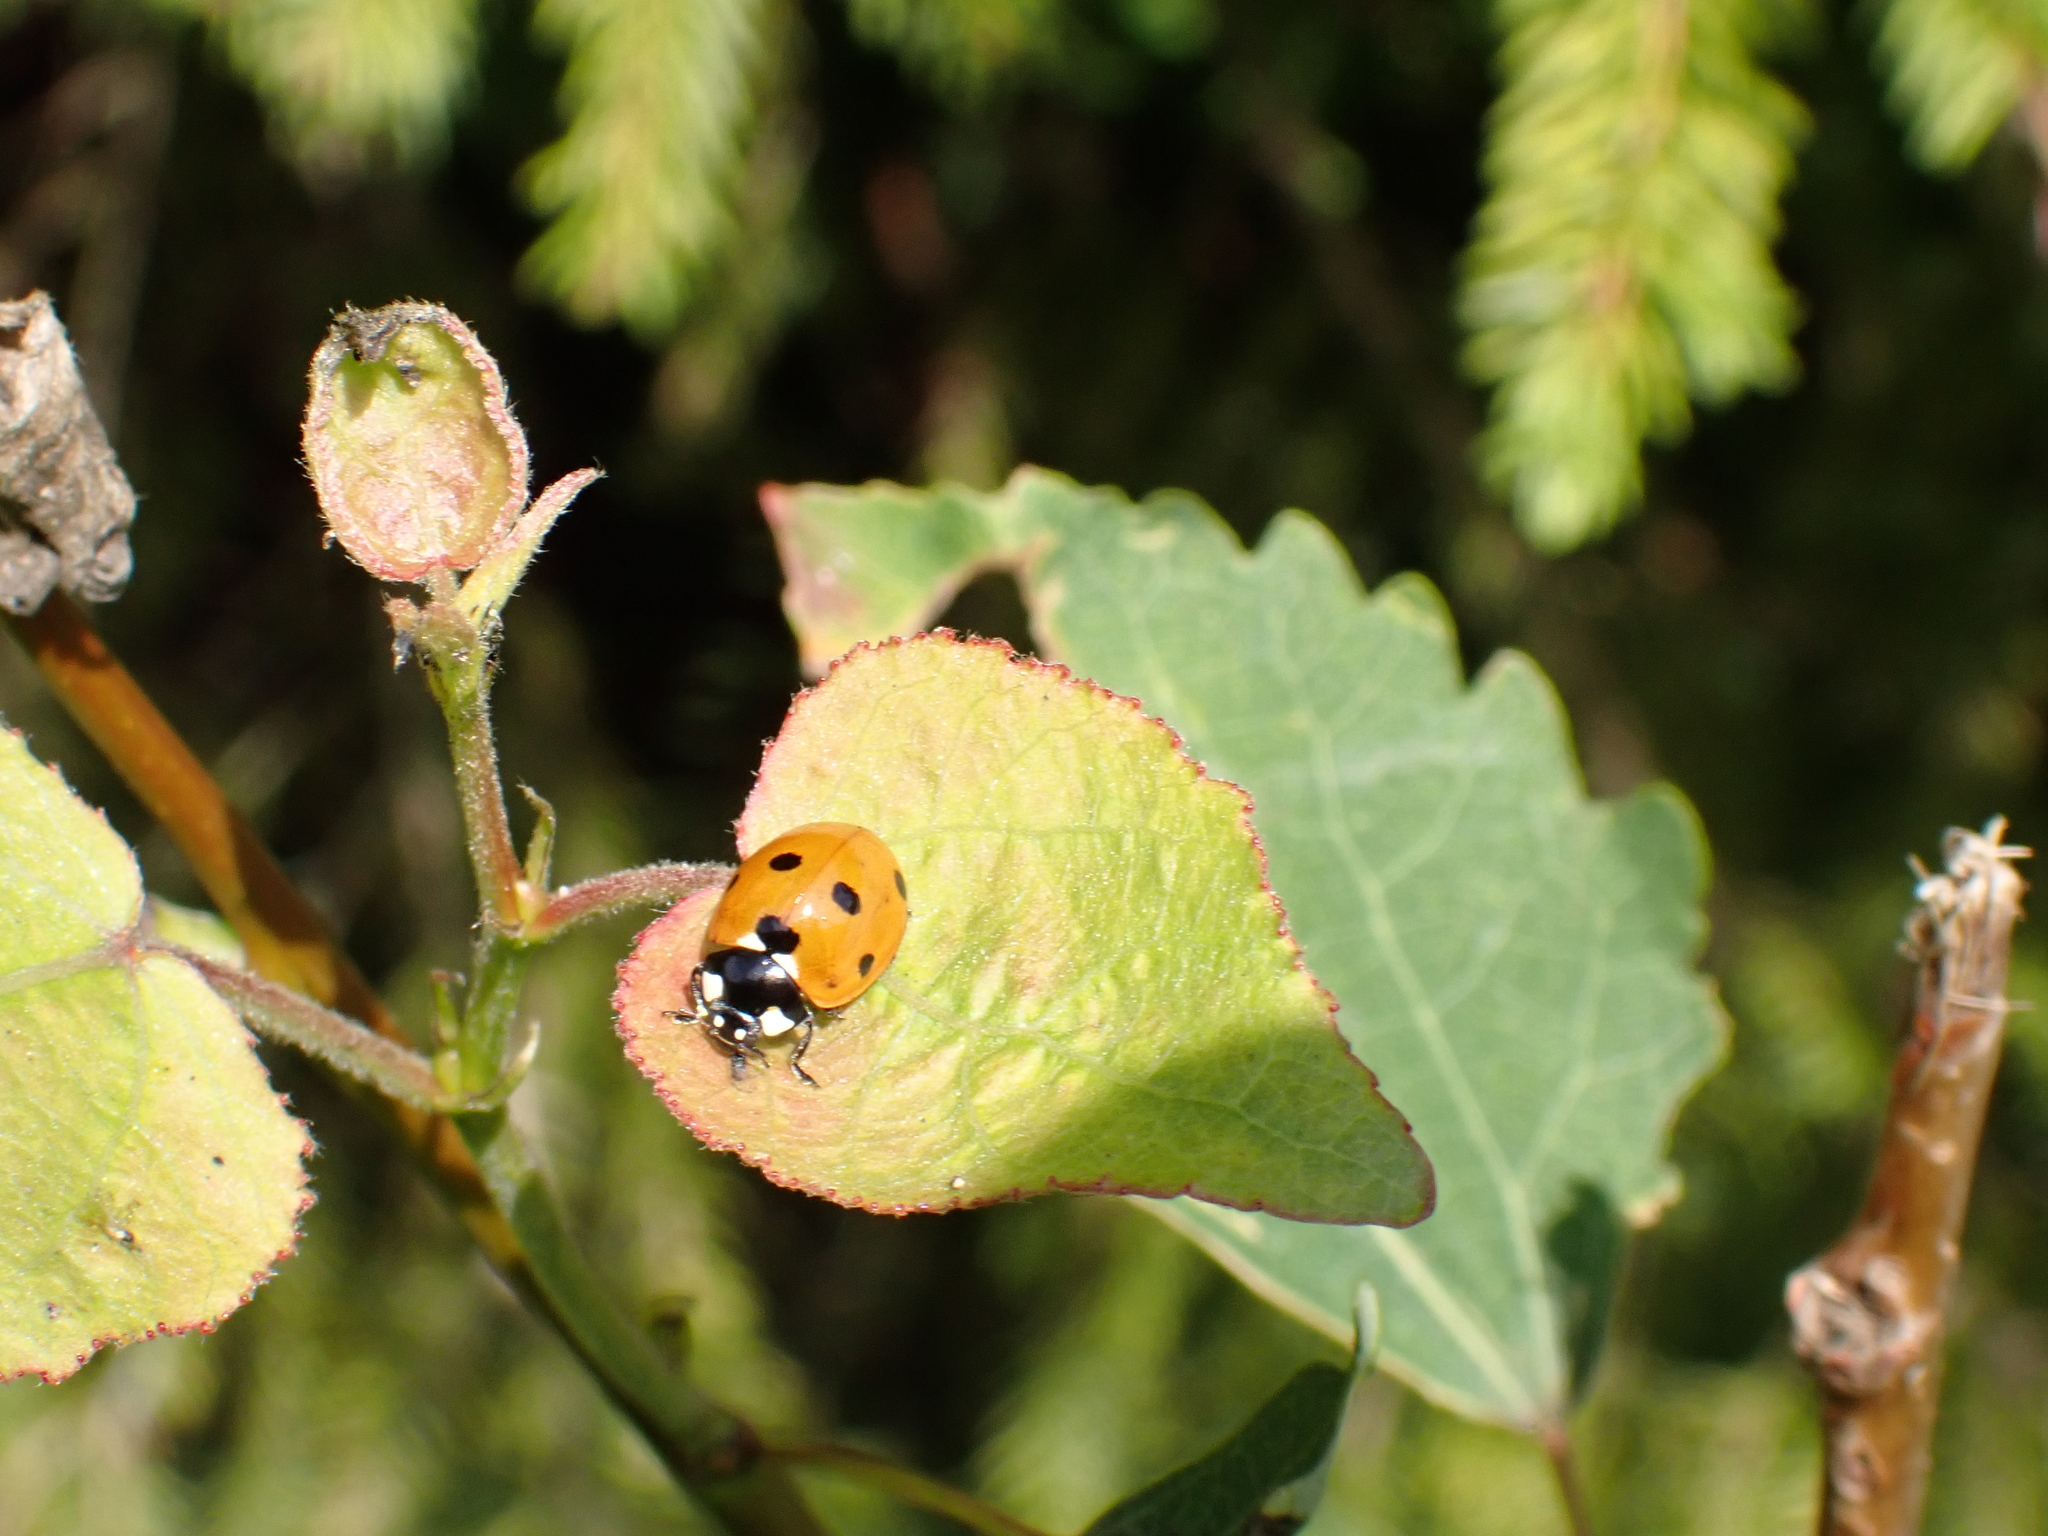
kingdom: Animalia
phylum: Arthropoda
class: Insecta
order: Coleoptera
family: Coccinellidae
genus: Coccinella
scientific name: Coccinella septempunctata
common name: Sevenspotted lady beetle
